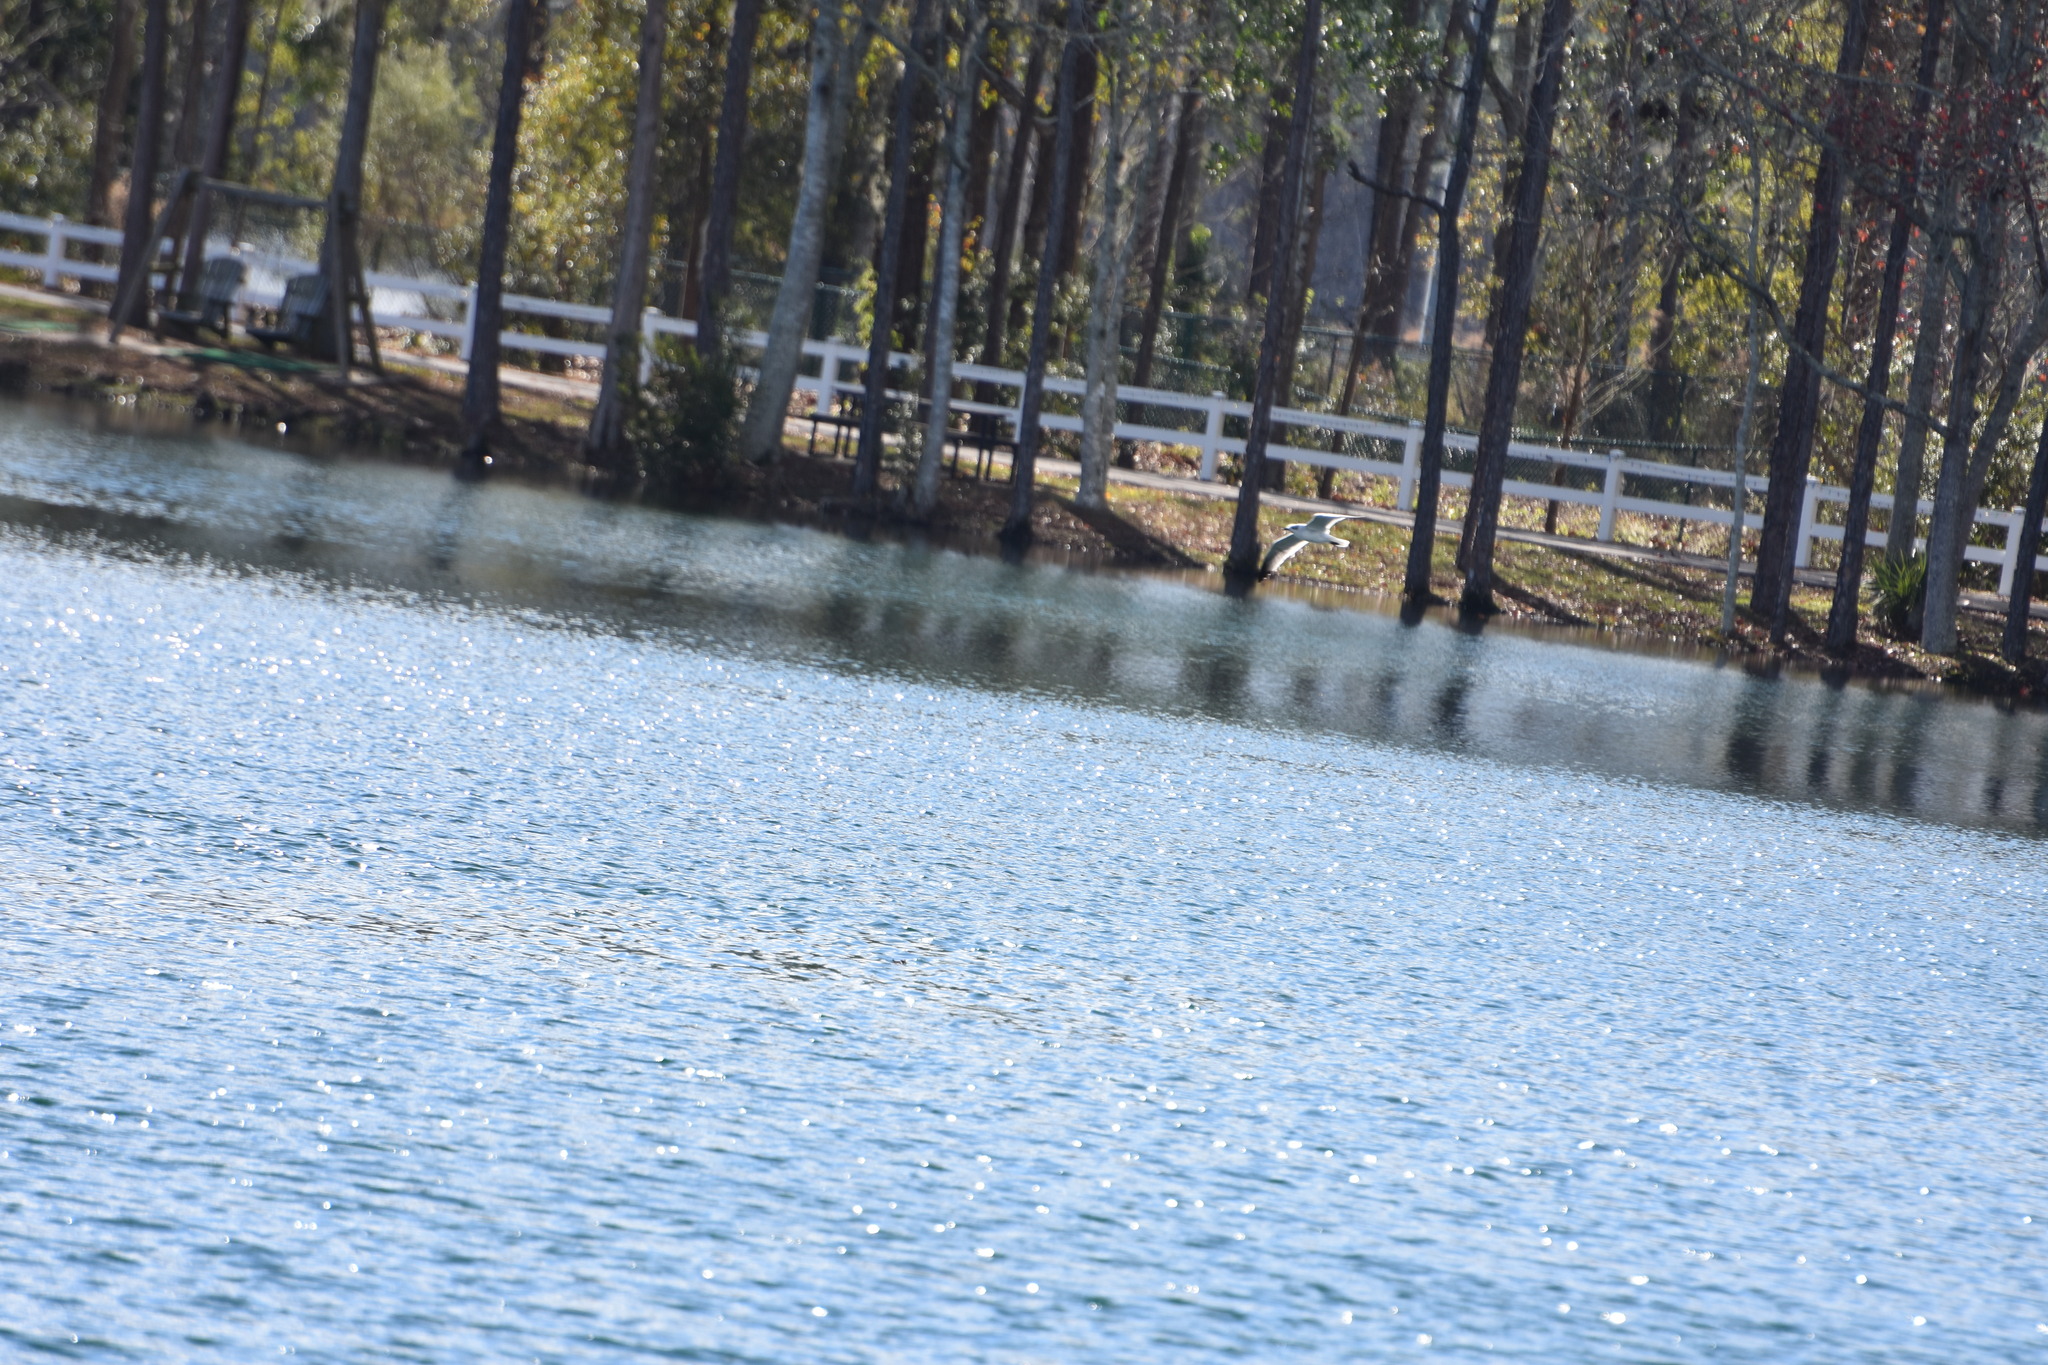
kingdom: Animalia
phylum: Chordata
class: Aves
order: Charadriiformes
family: Laridae
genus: Leucophaeus
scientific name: Leucophaeus atricilla
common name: Laughing gull
